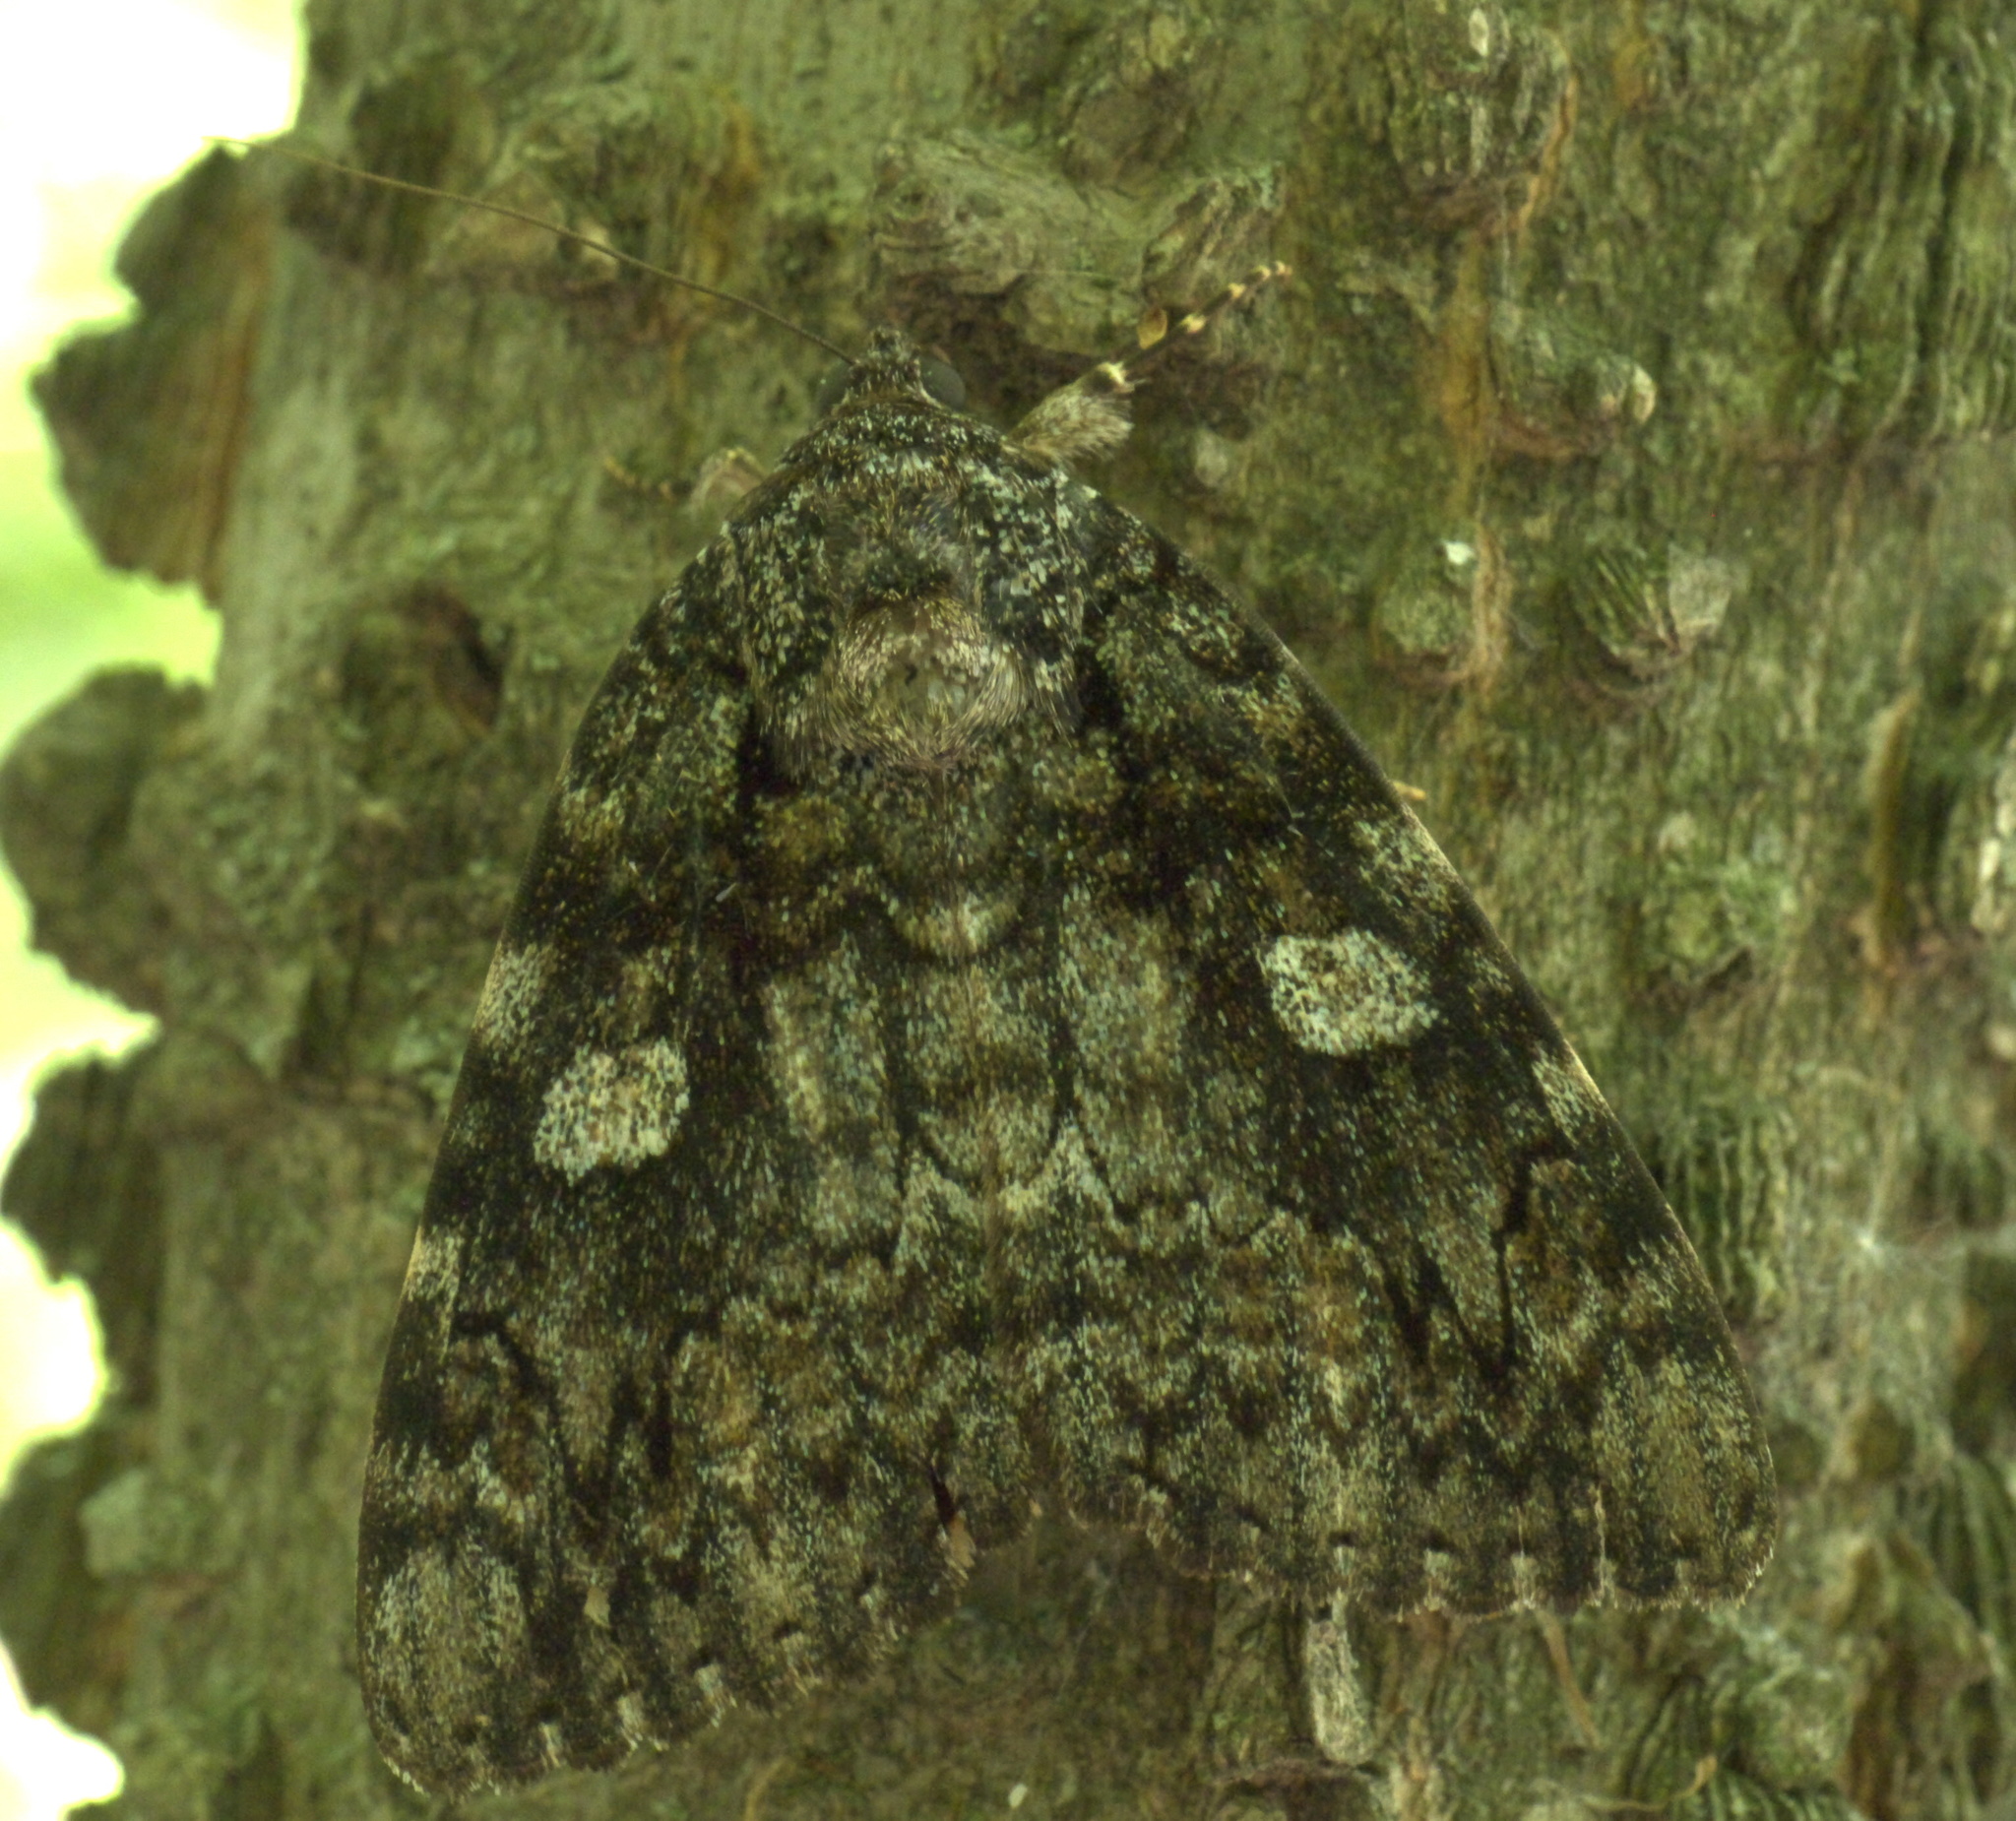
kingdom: Animalia
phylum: Arthropoda
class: Insecta
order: Lepidoptera
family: Erebidae
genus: Catocala
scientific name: Catocala ilia
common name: Ilia underwing
